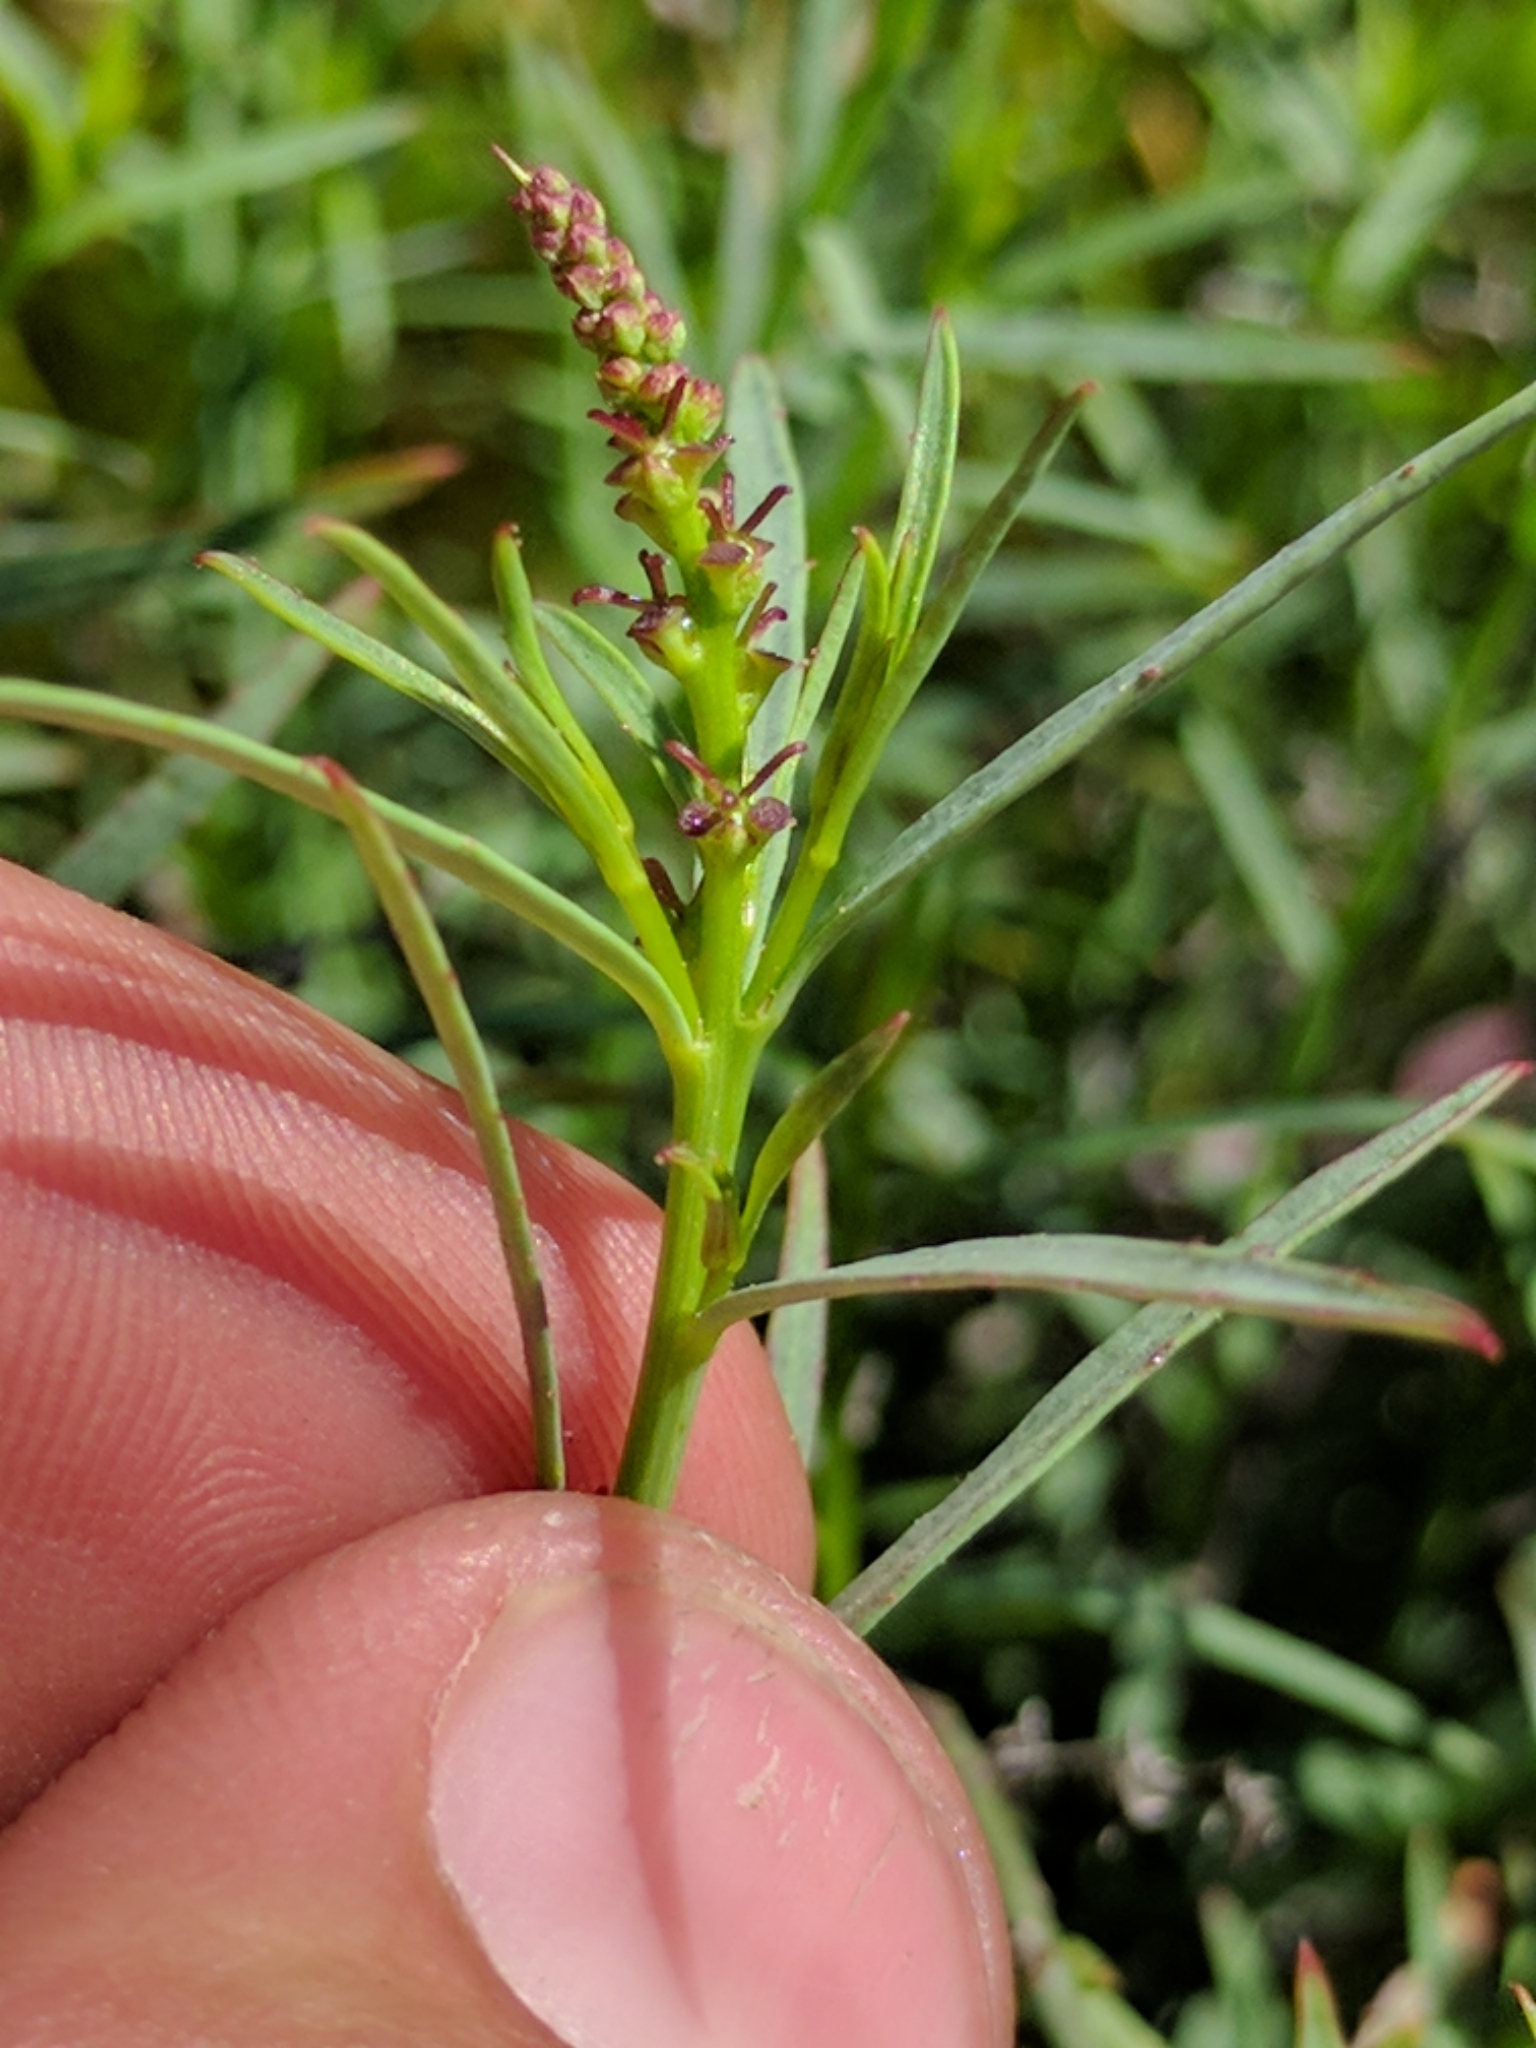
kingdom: Plantae
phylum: Tracheophyta
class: Magnoliopsida
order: Malpighiales
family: Euphorbiaceae
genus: Stillingia
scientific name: Stillingia linearifolia
